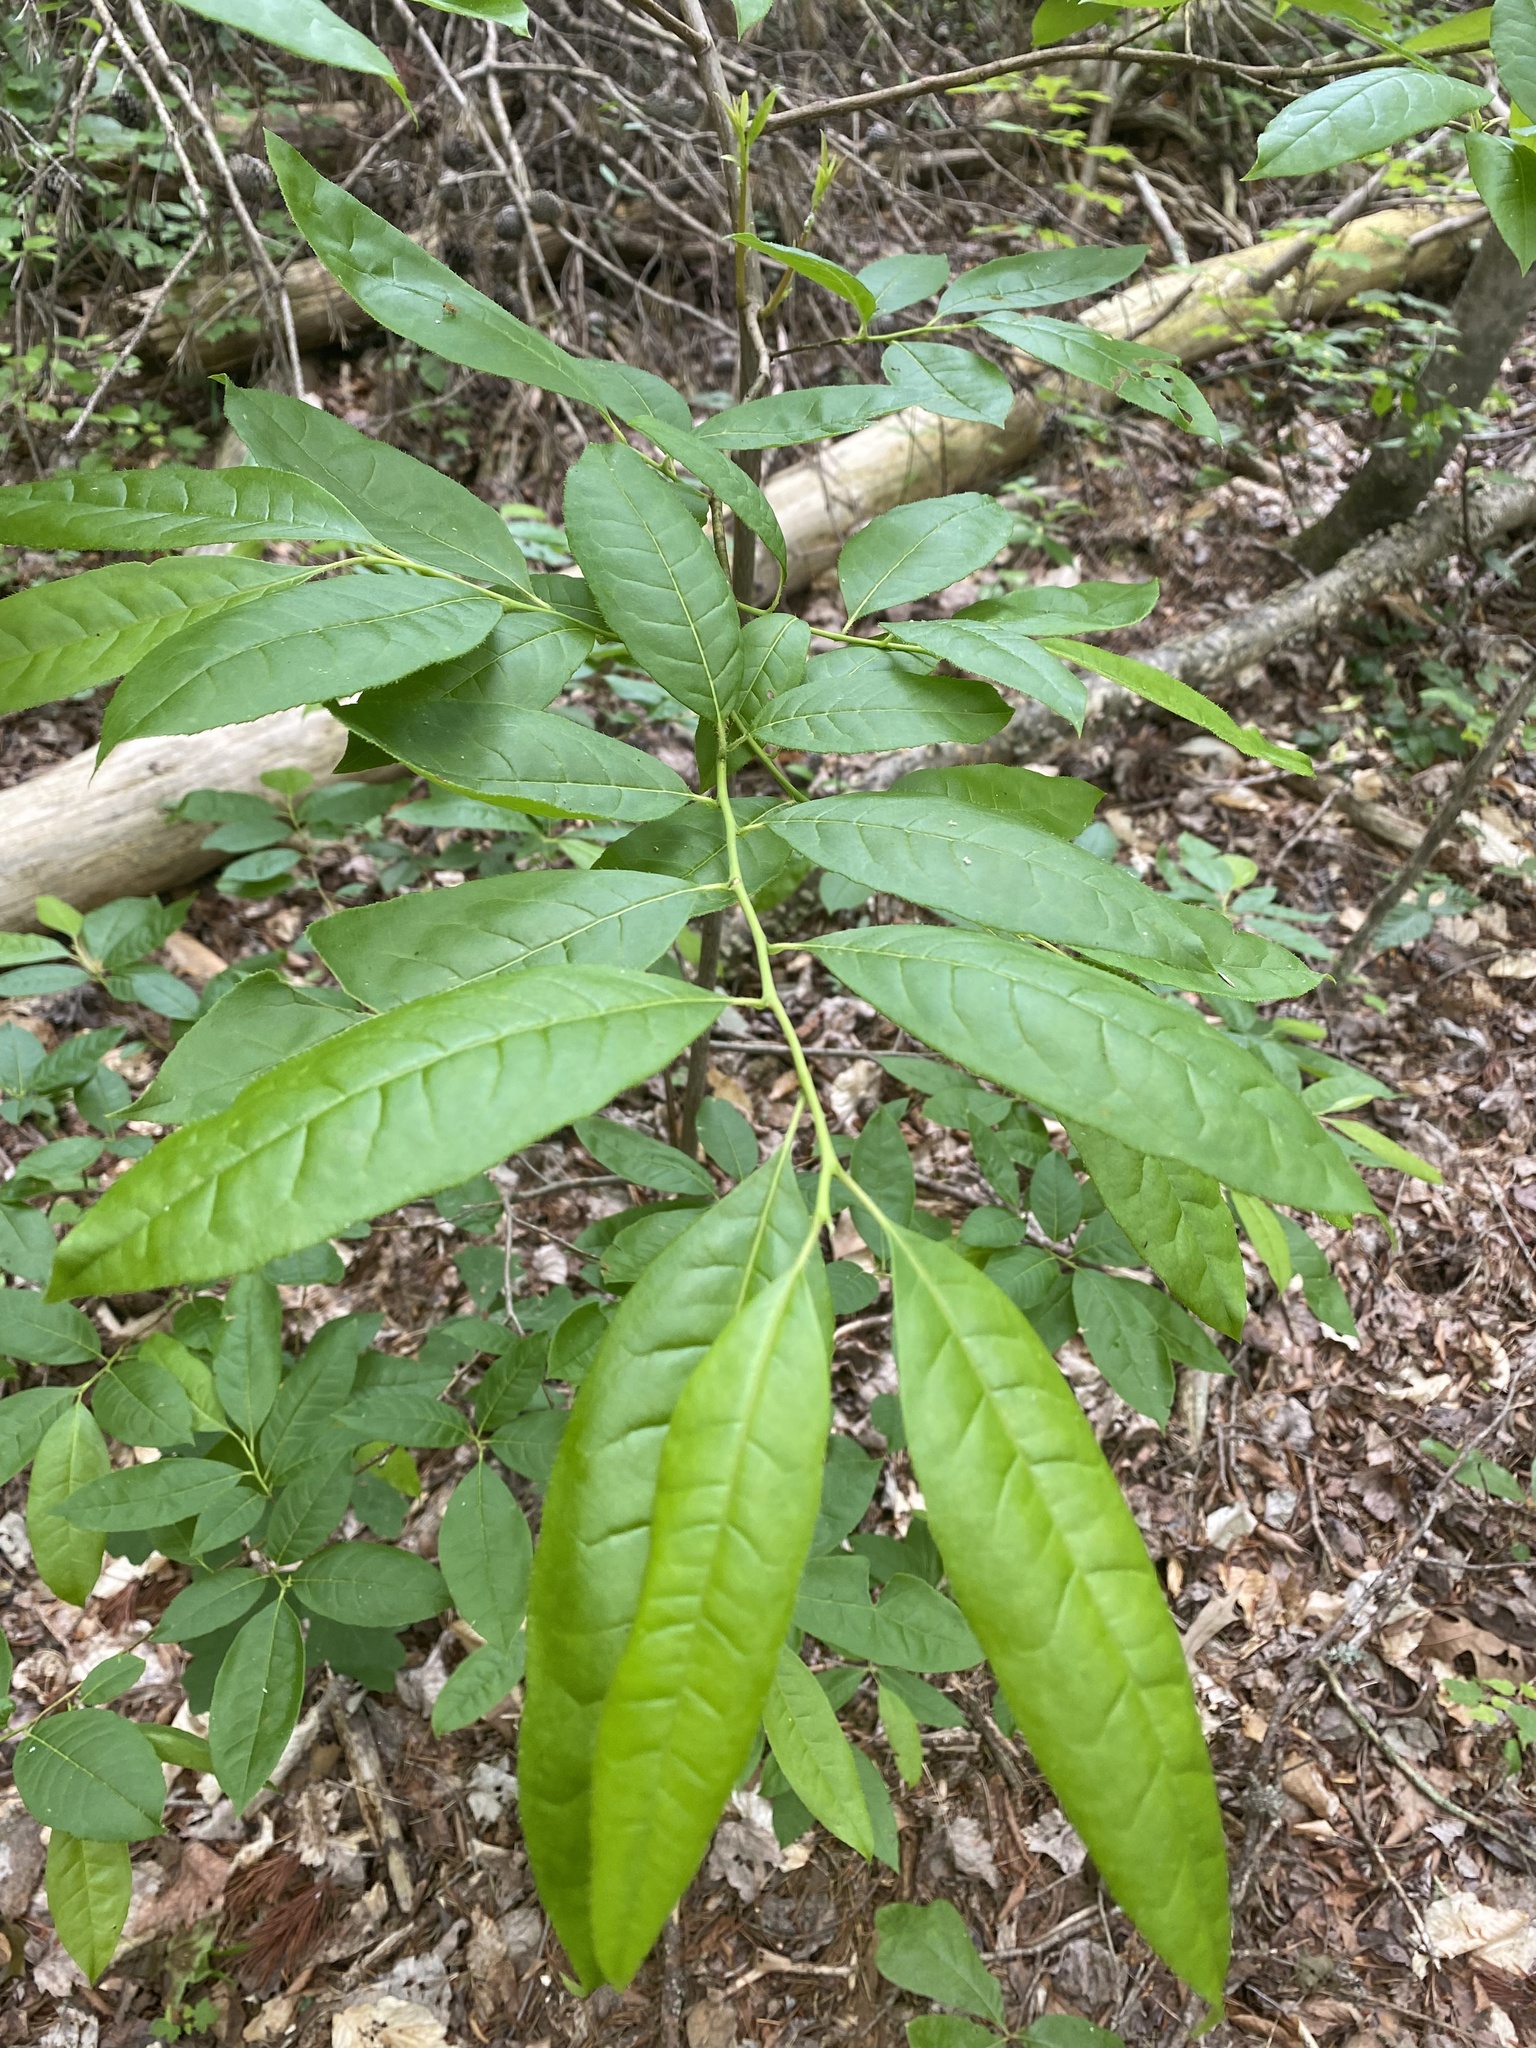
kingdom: Plantae
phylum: Tracheophyta
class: Magnoliopsida
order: Ericales
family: Ericaceae
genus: Oxydendrum
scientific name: Oxydendrum arboreum
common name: Sourwood
